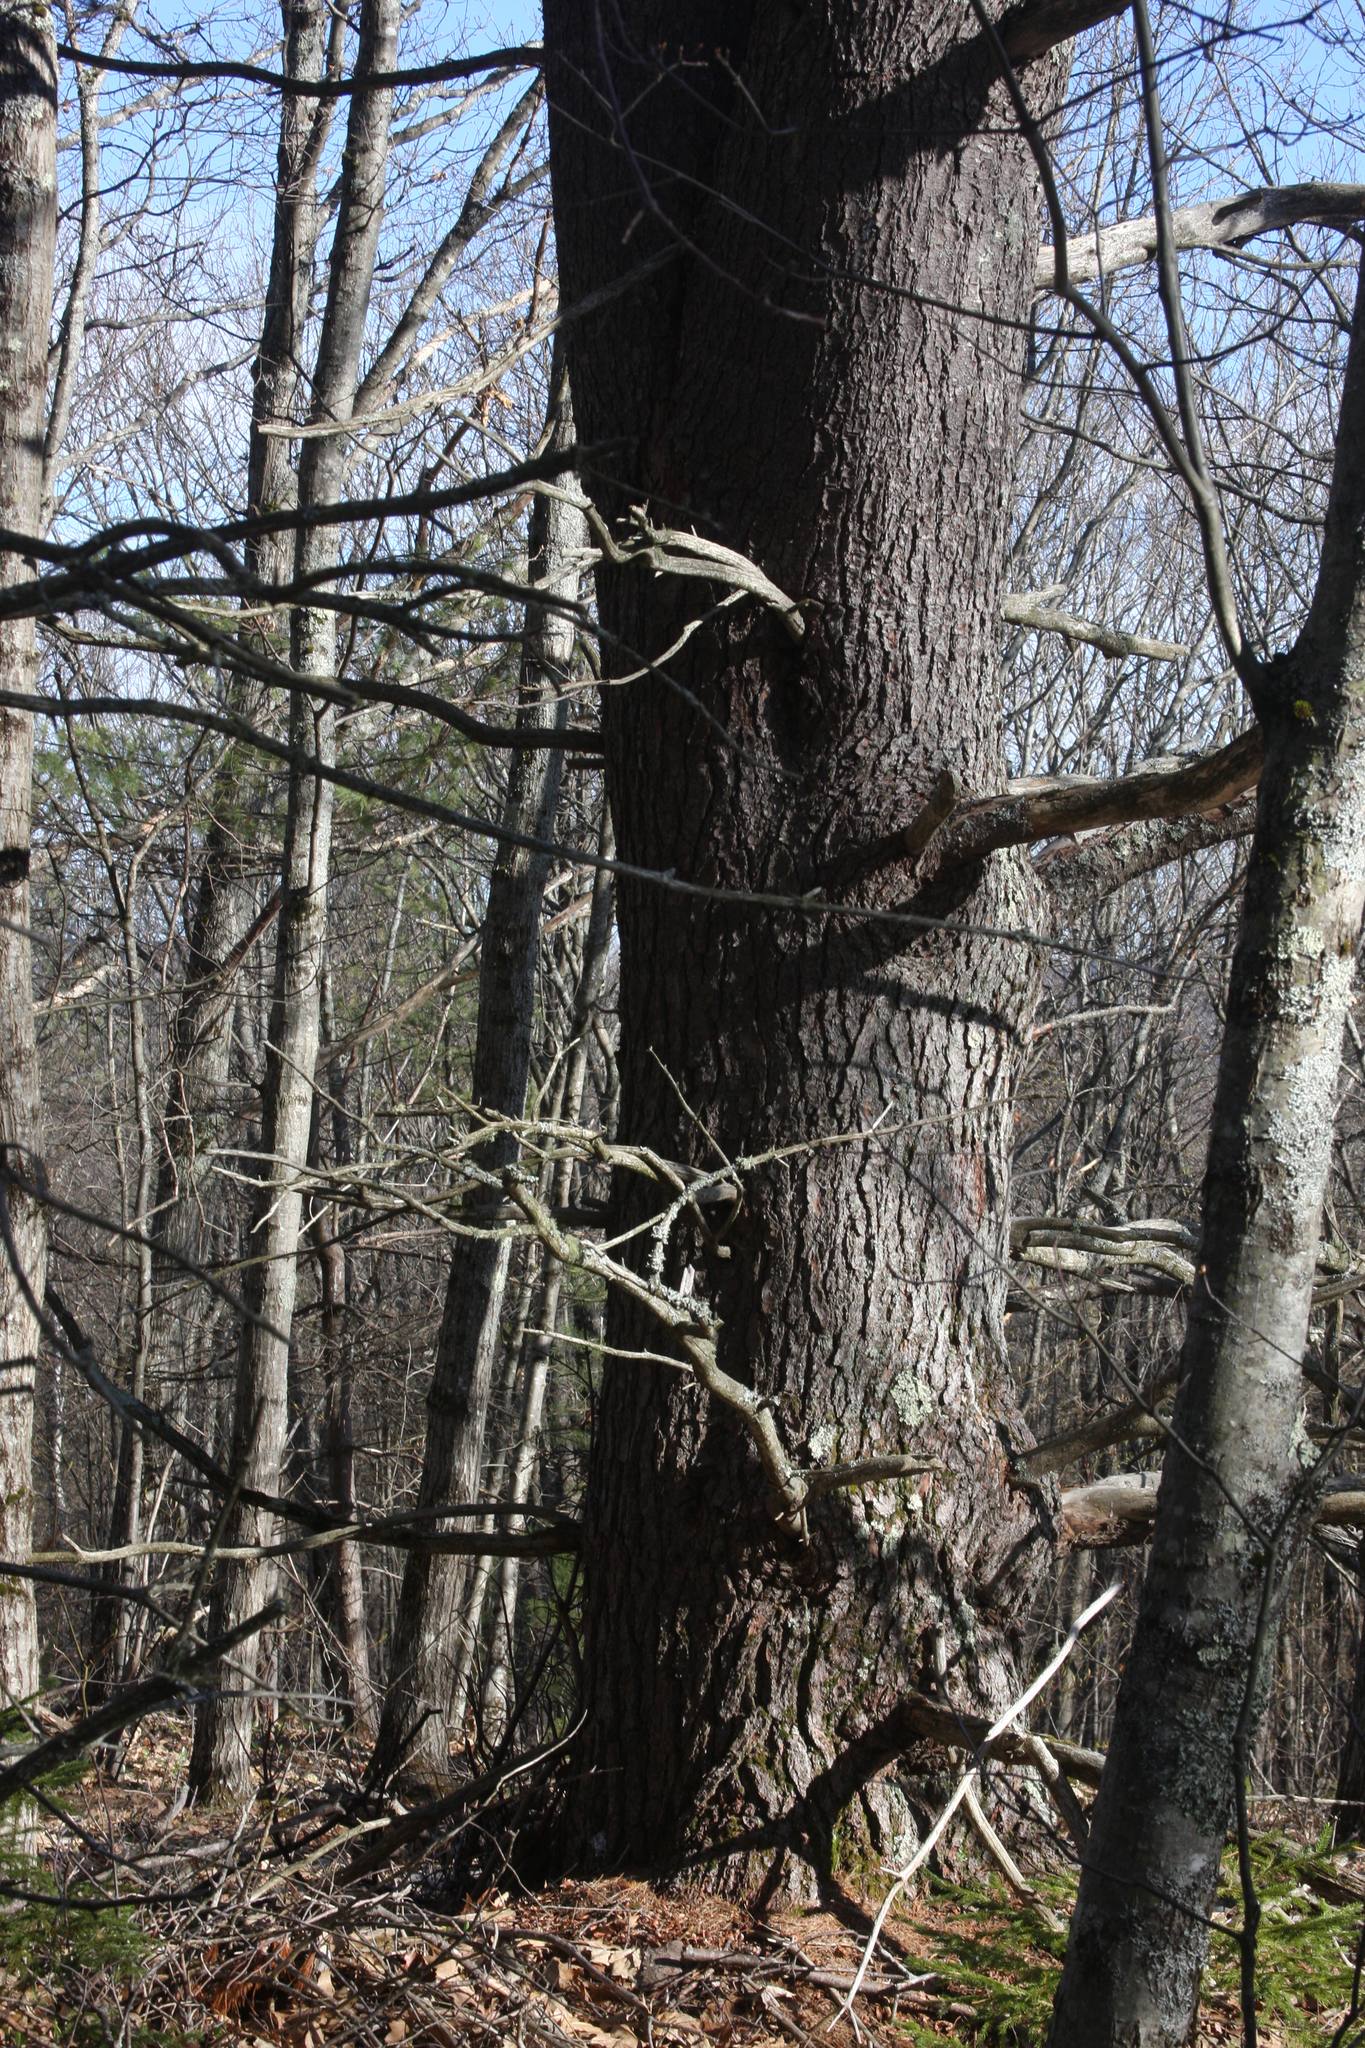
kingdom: Plantae
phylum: Tracheophyta
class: Pinopsida
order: Pinales
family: Pinaceae
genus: Pinus
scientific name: Pinus strobus
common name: Weymouth pine
